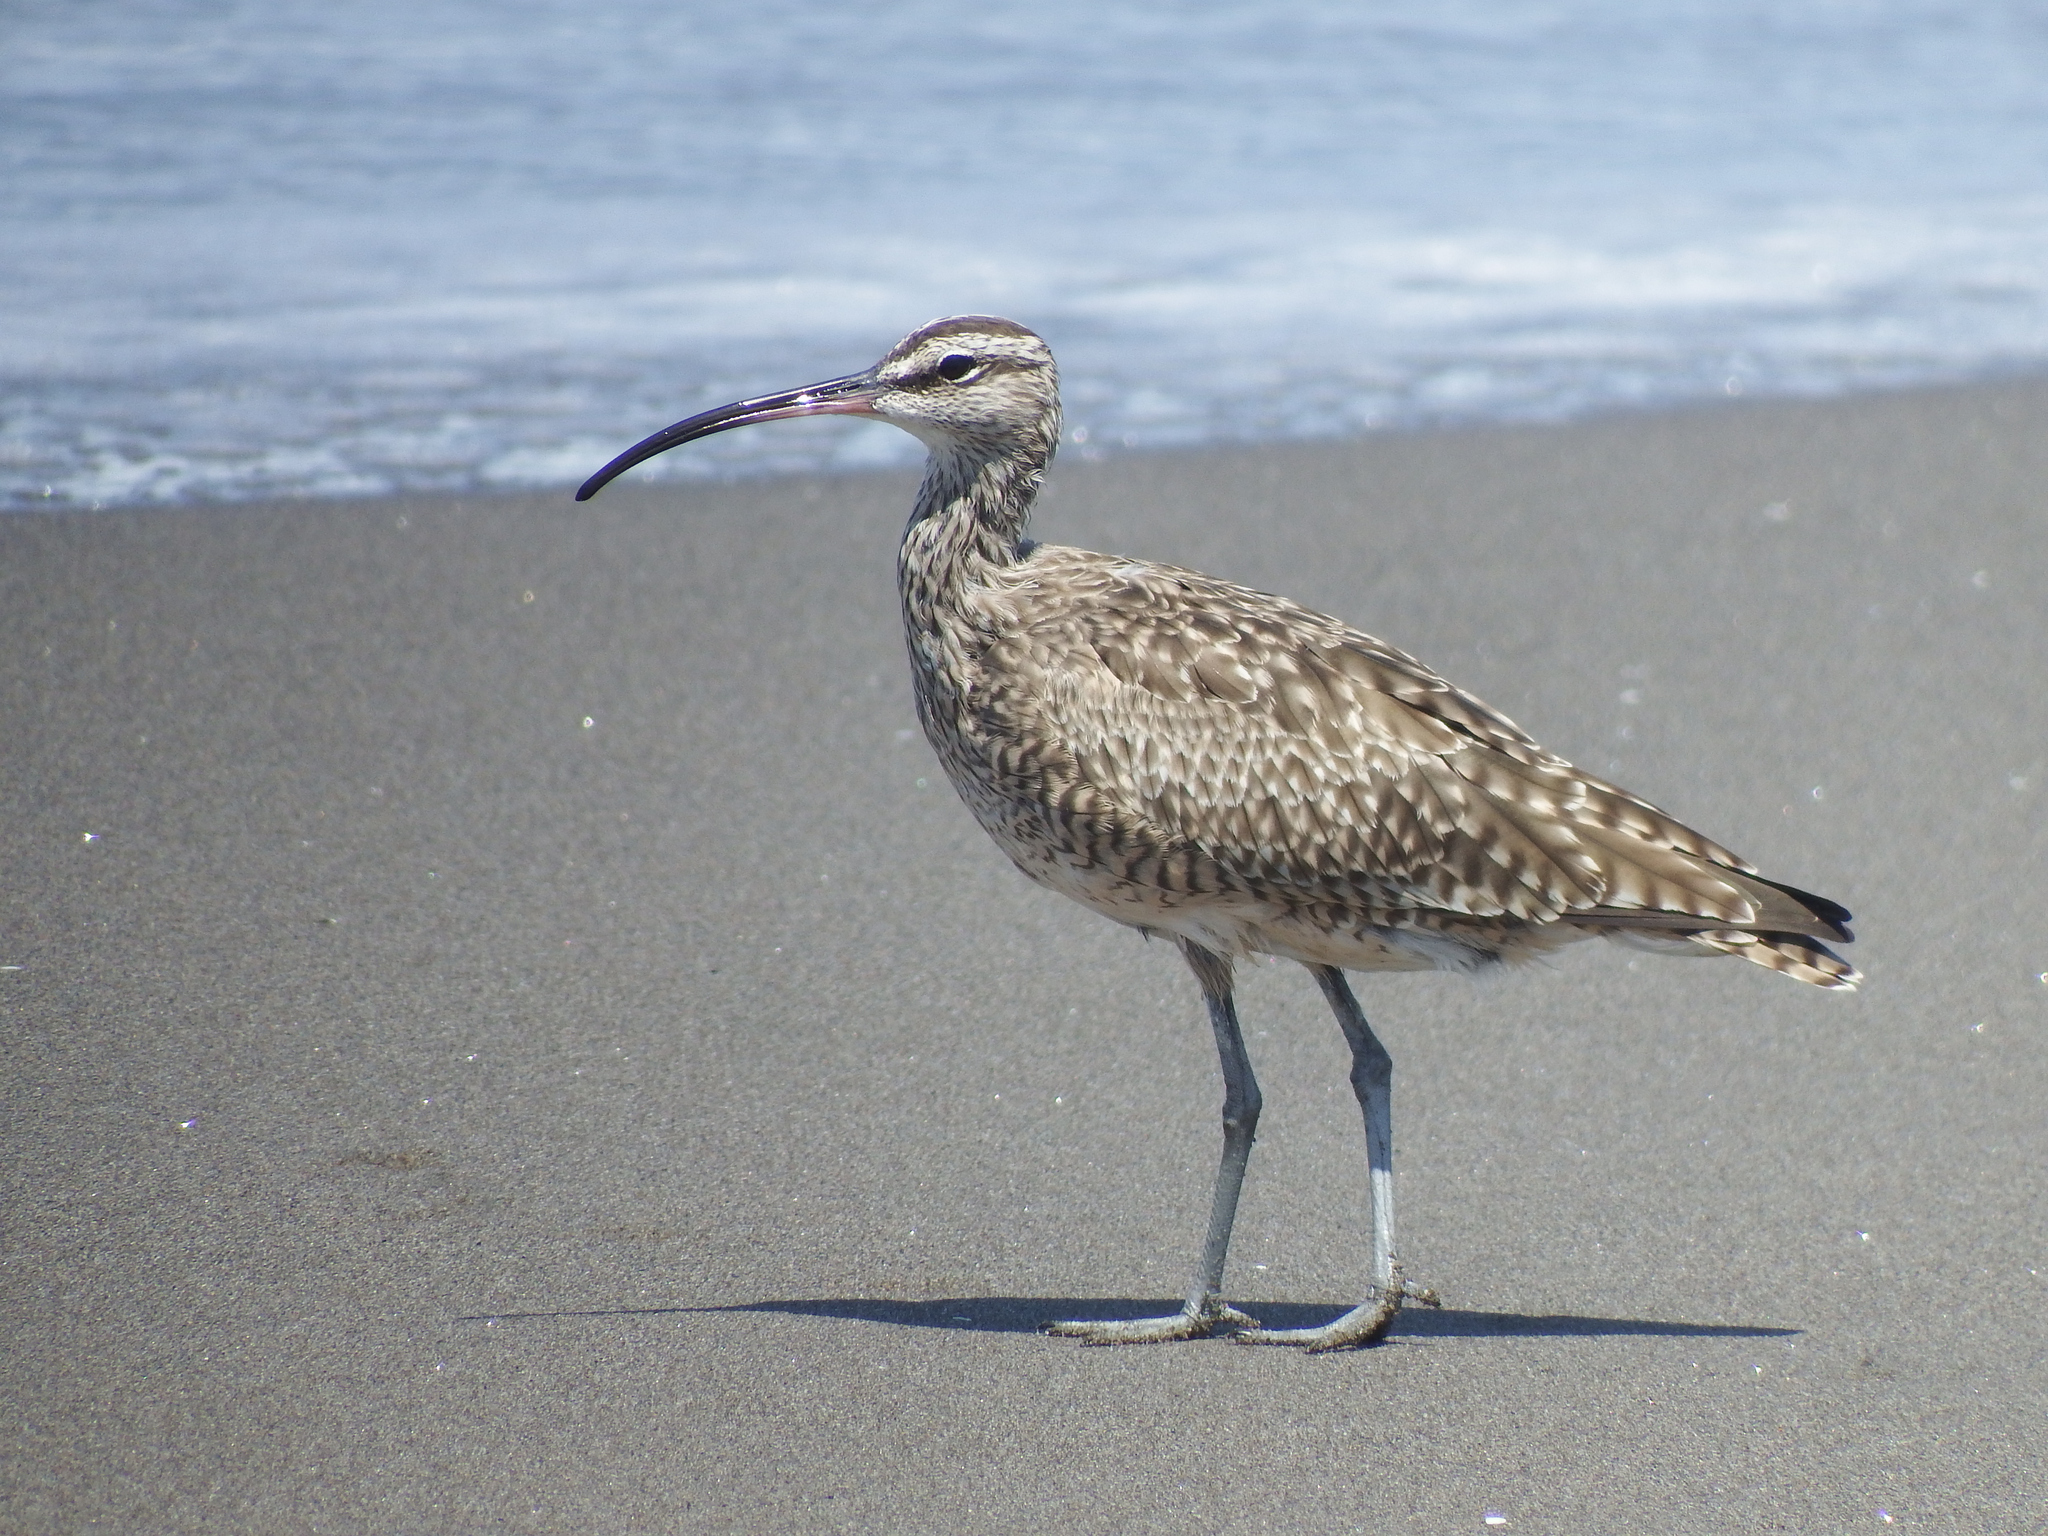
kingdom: Animalia
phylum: Chordata
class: Aves
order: Charadriiformes
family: Scolopacidae
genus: Numenius
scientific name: Numenius phaeopus
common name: Whimbrel
